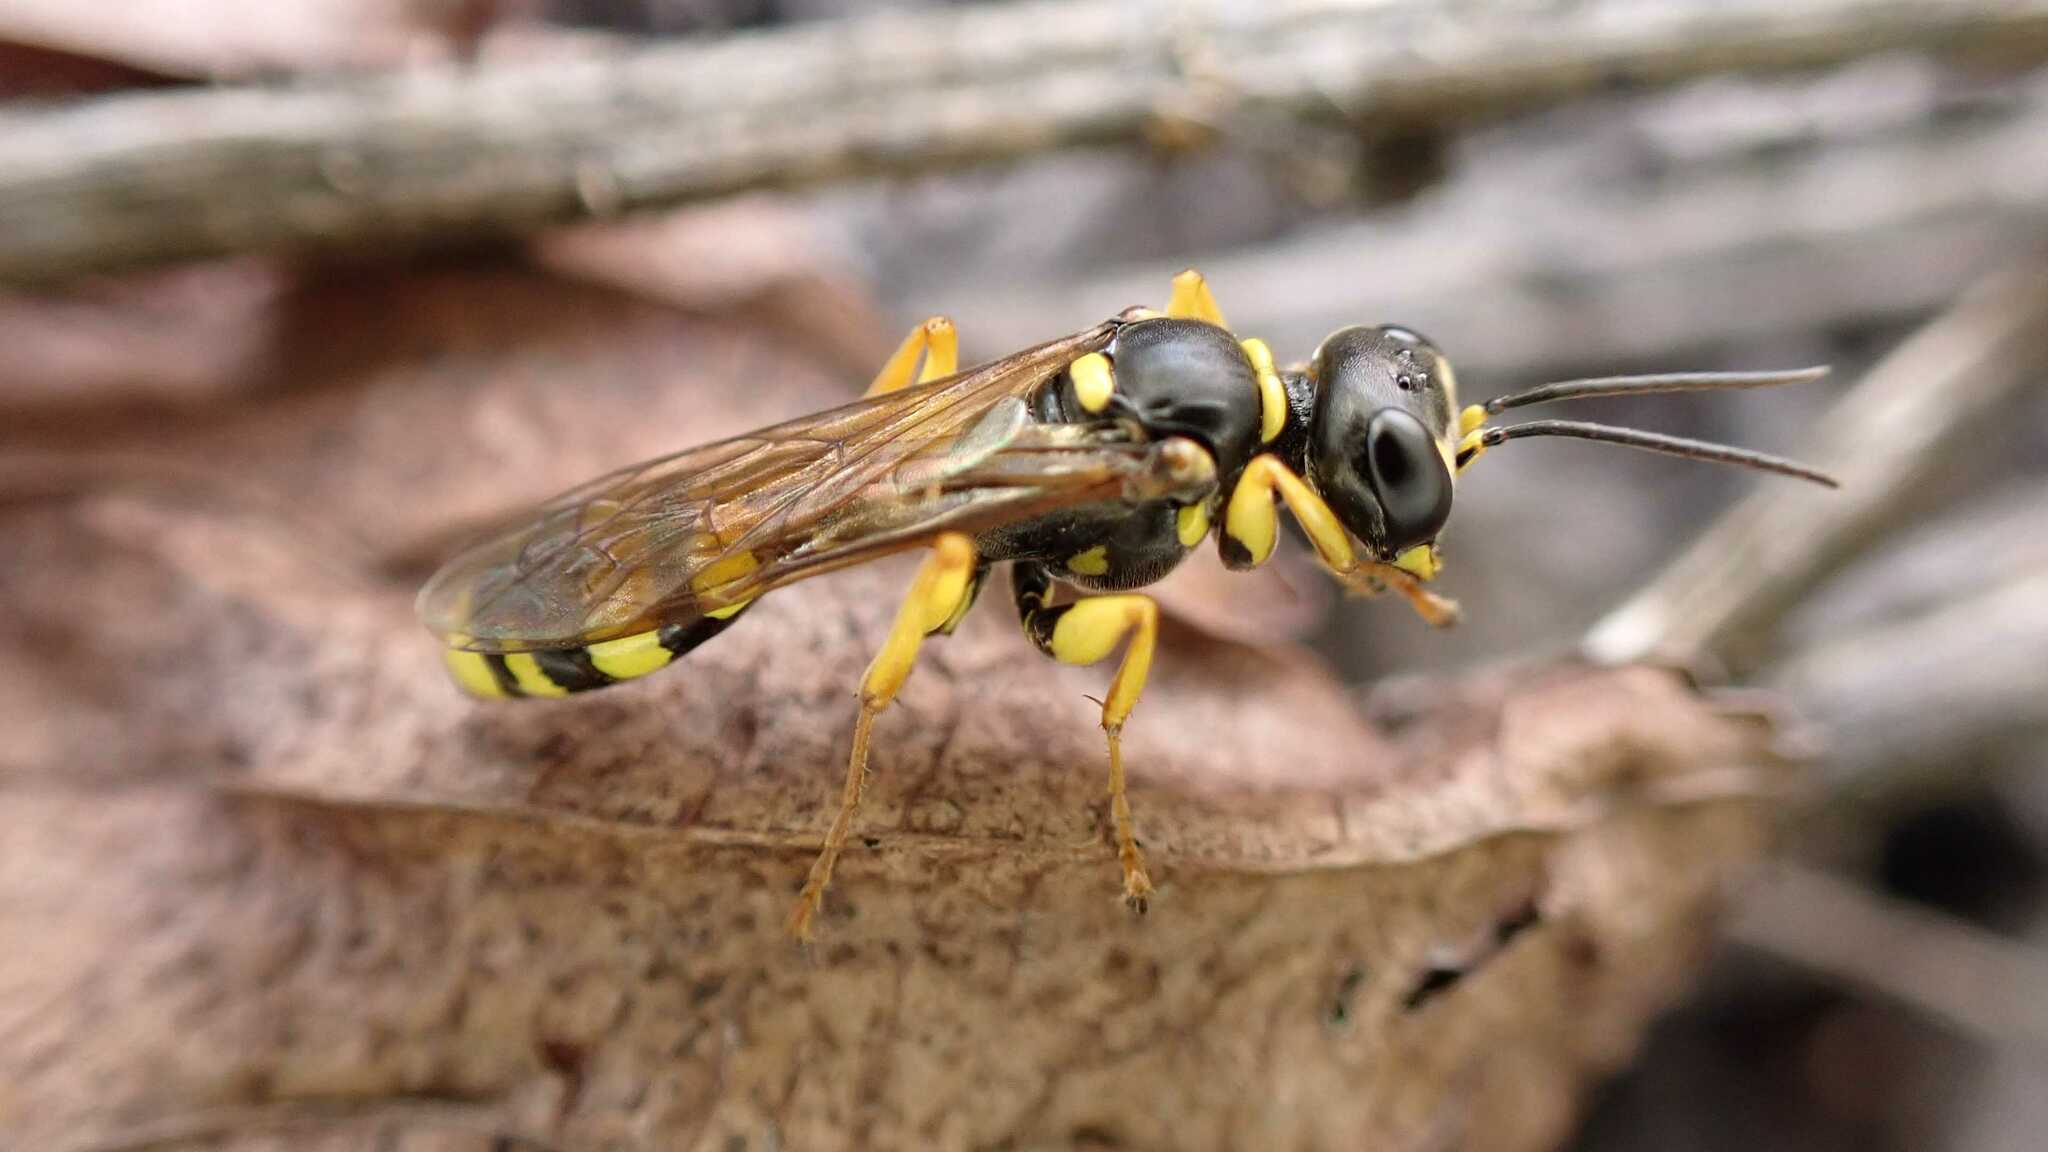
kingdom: Animalia
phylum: Arthropoda
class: Insecta
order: Hymenoptera
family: Crabronidae
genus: Mellinus
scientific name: Mellinus arvensis
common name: Field digger wasp
